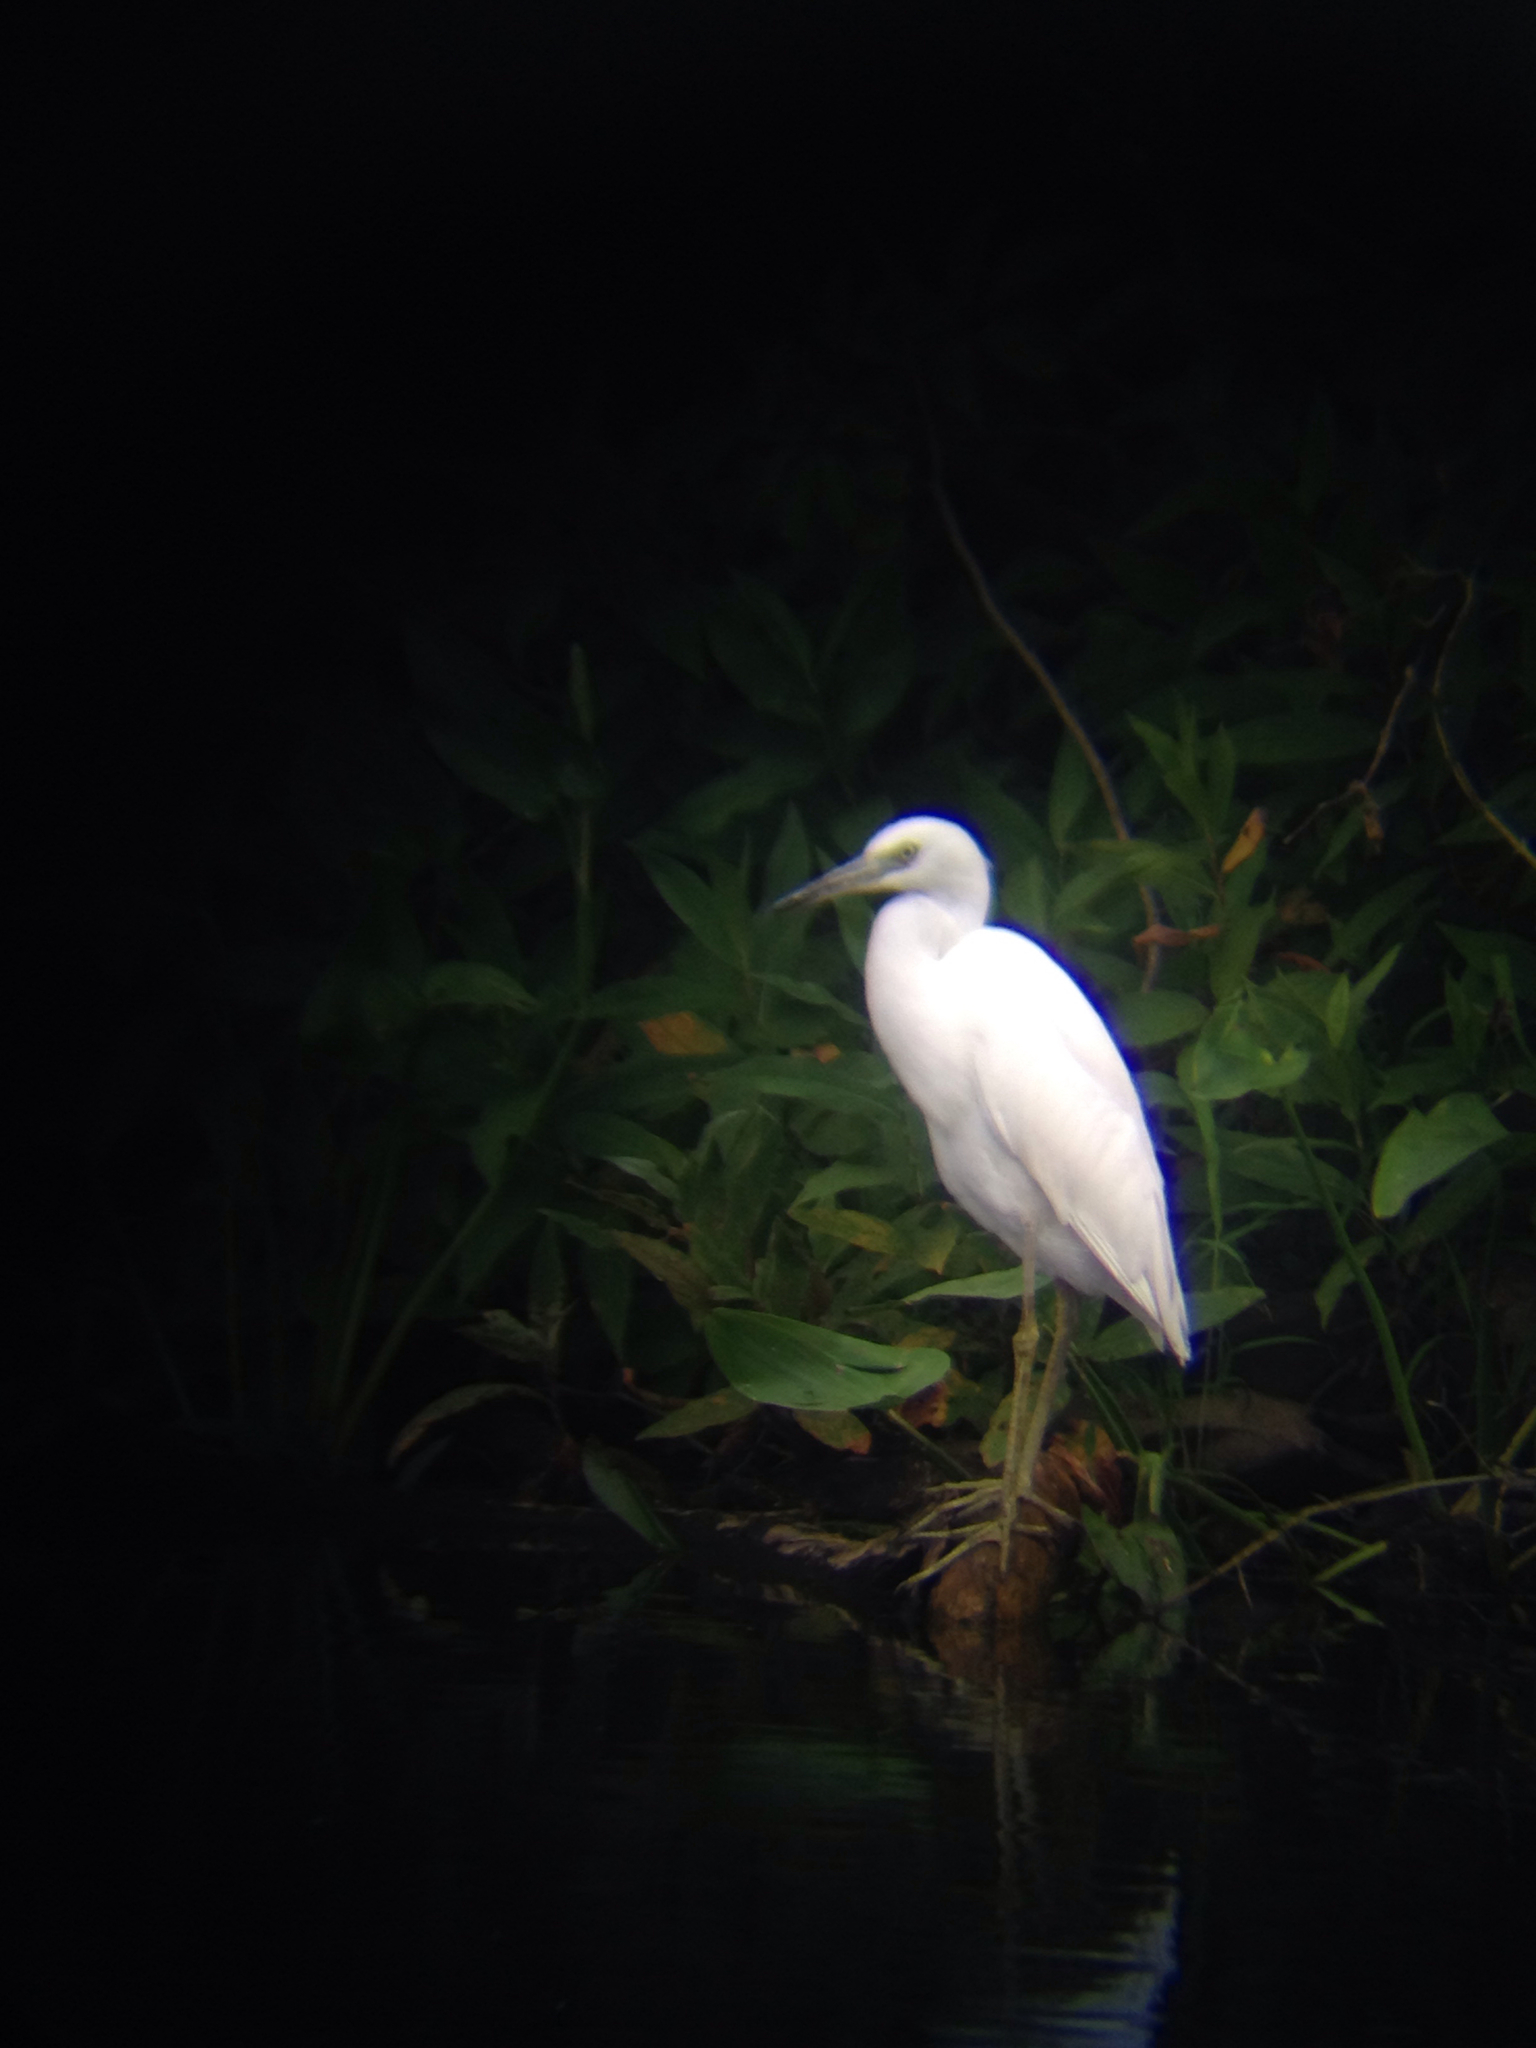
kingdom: Animalia
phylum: Chordata
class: Aves
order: Pelecaniformes
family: Ardeidae
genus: Egretta
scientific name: Egretta caerulea
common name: Little blue heron
